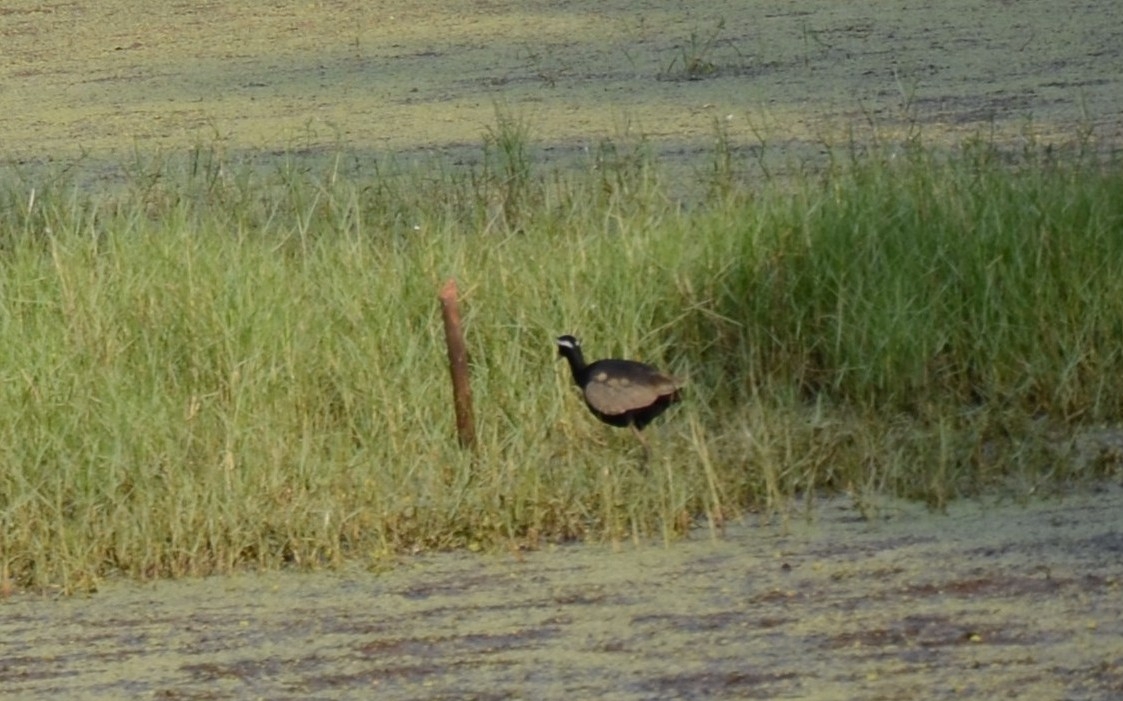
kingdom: Animalia
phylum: Chordata
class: Aves
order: Charadriiformes
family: Jacanidae
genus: Metopidius
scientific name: Metopidius indicus
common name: Bronze-winged jacana
